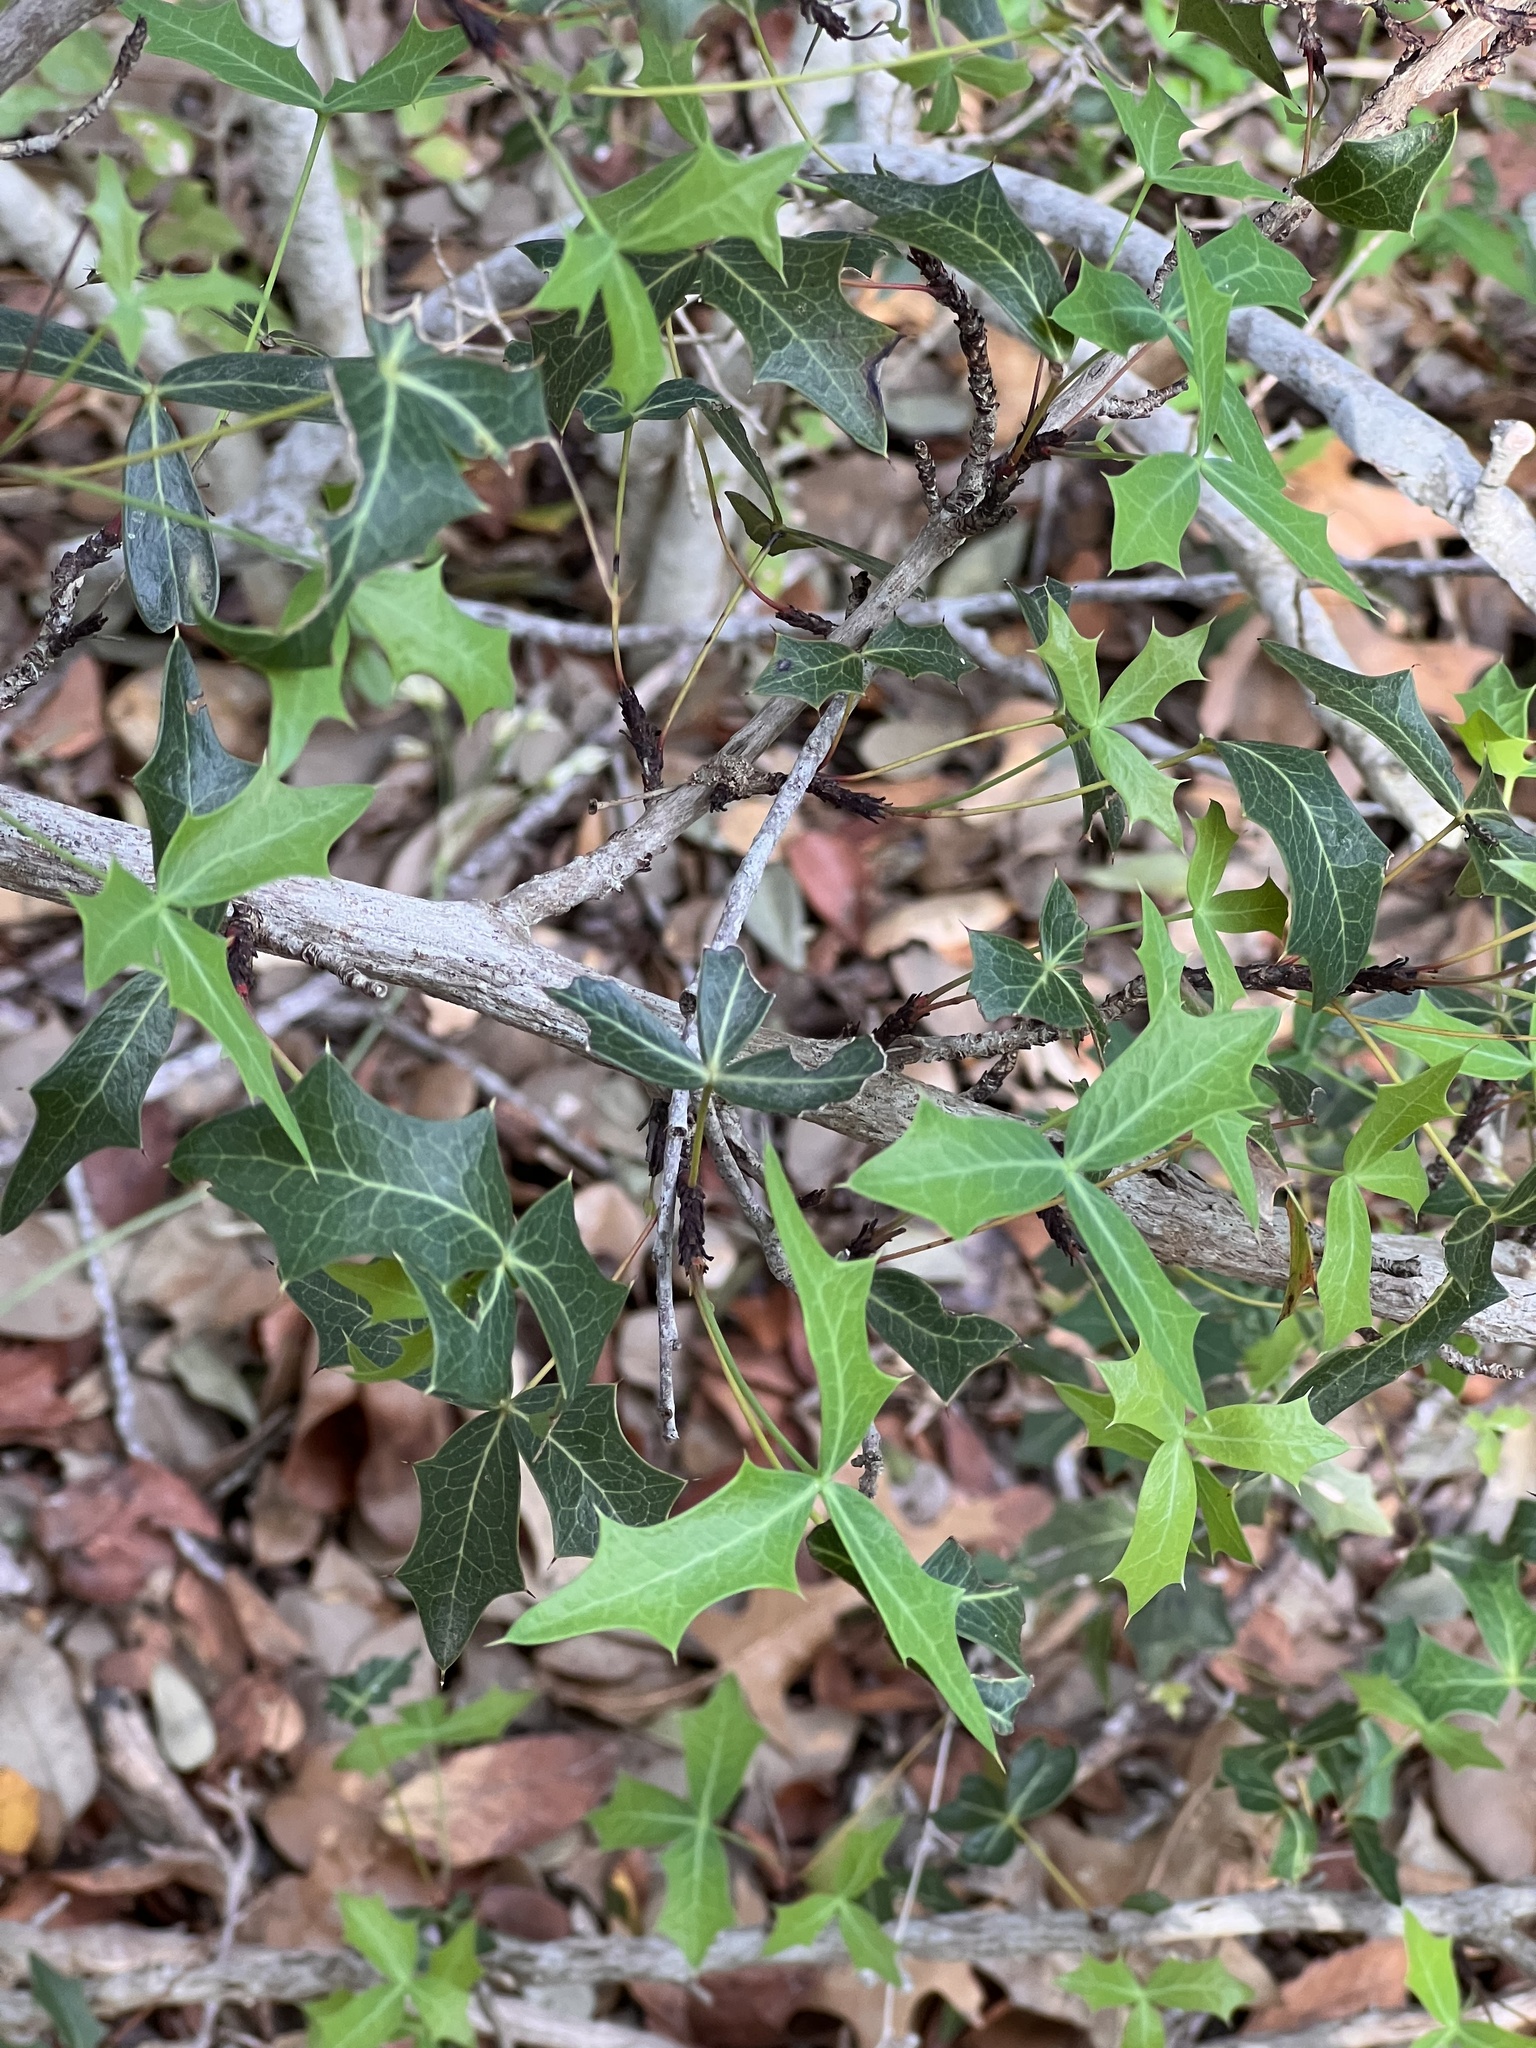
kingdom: Plantae
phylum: Tracheophyta
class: Magnoliopsida
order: Ranunculales
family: Berberidaceae
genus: Alloberberis
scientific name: Alloberberis trifoliolata
